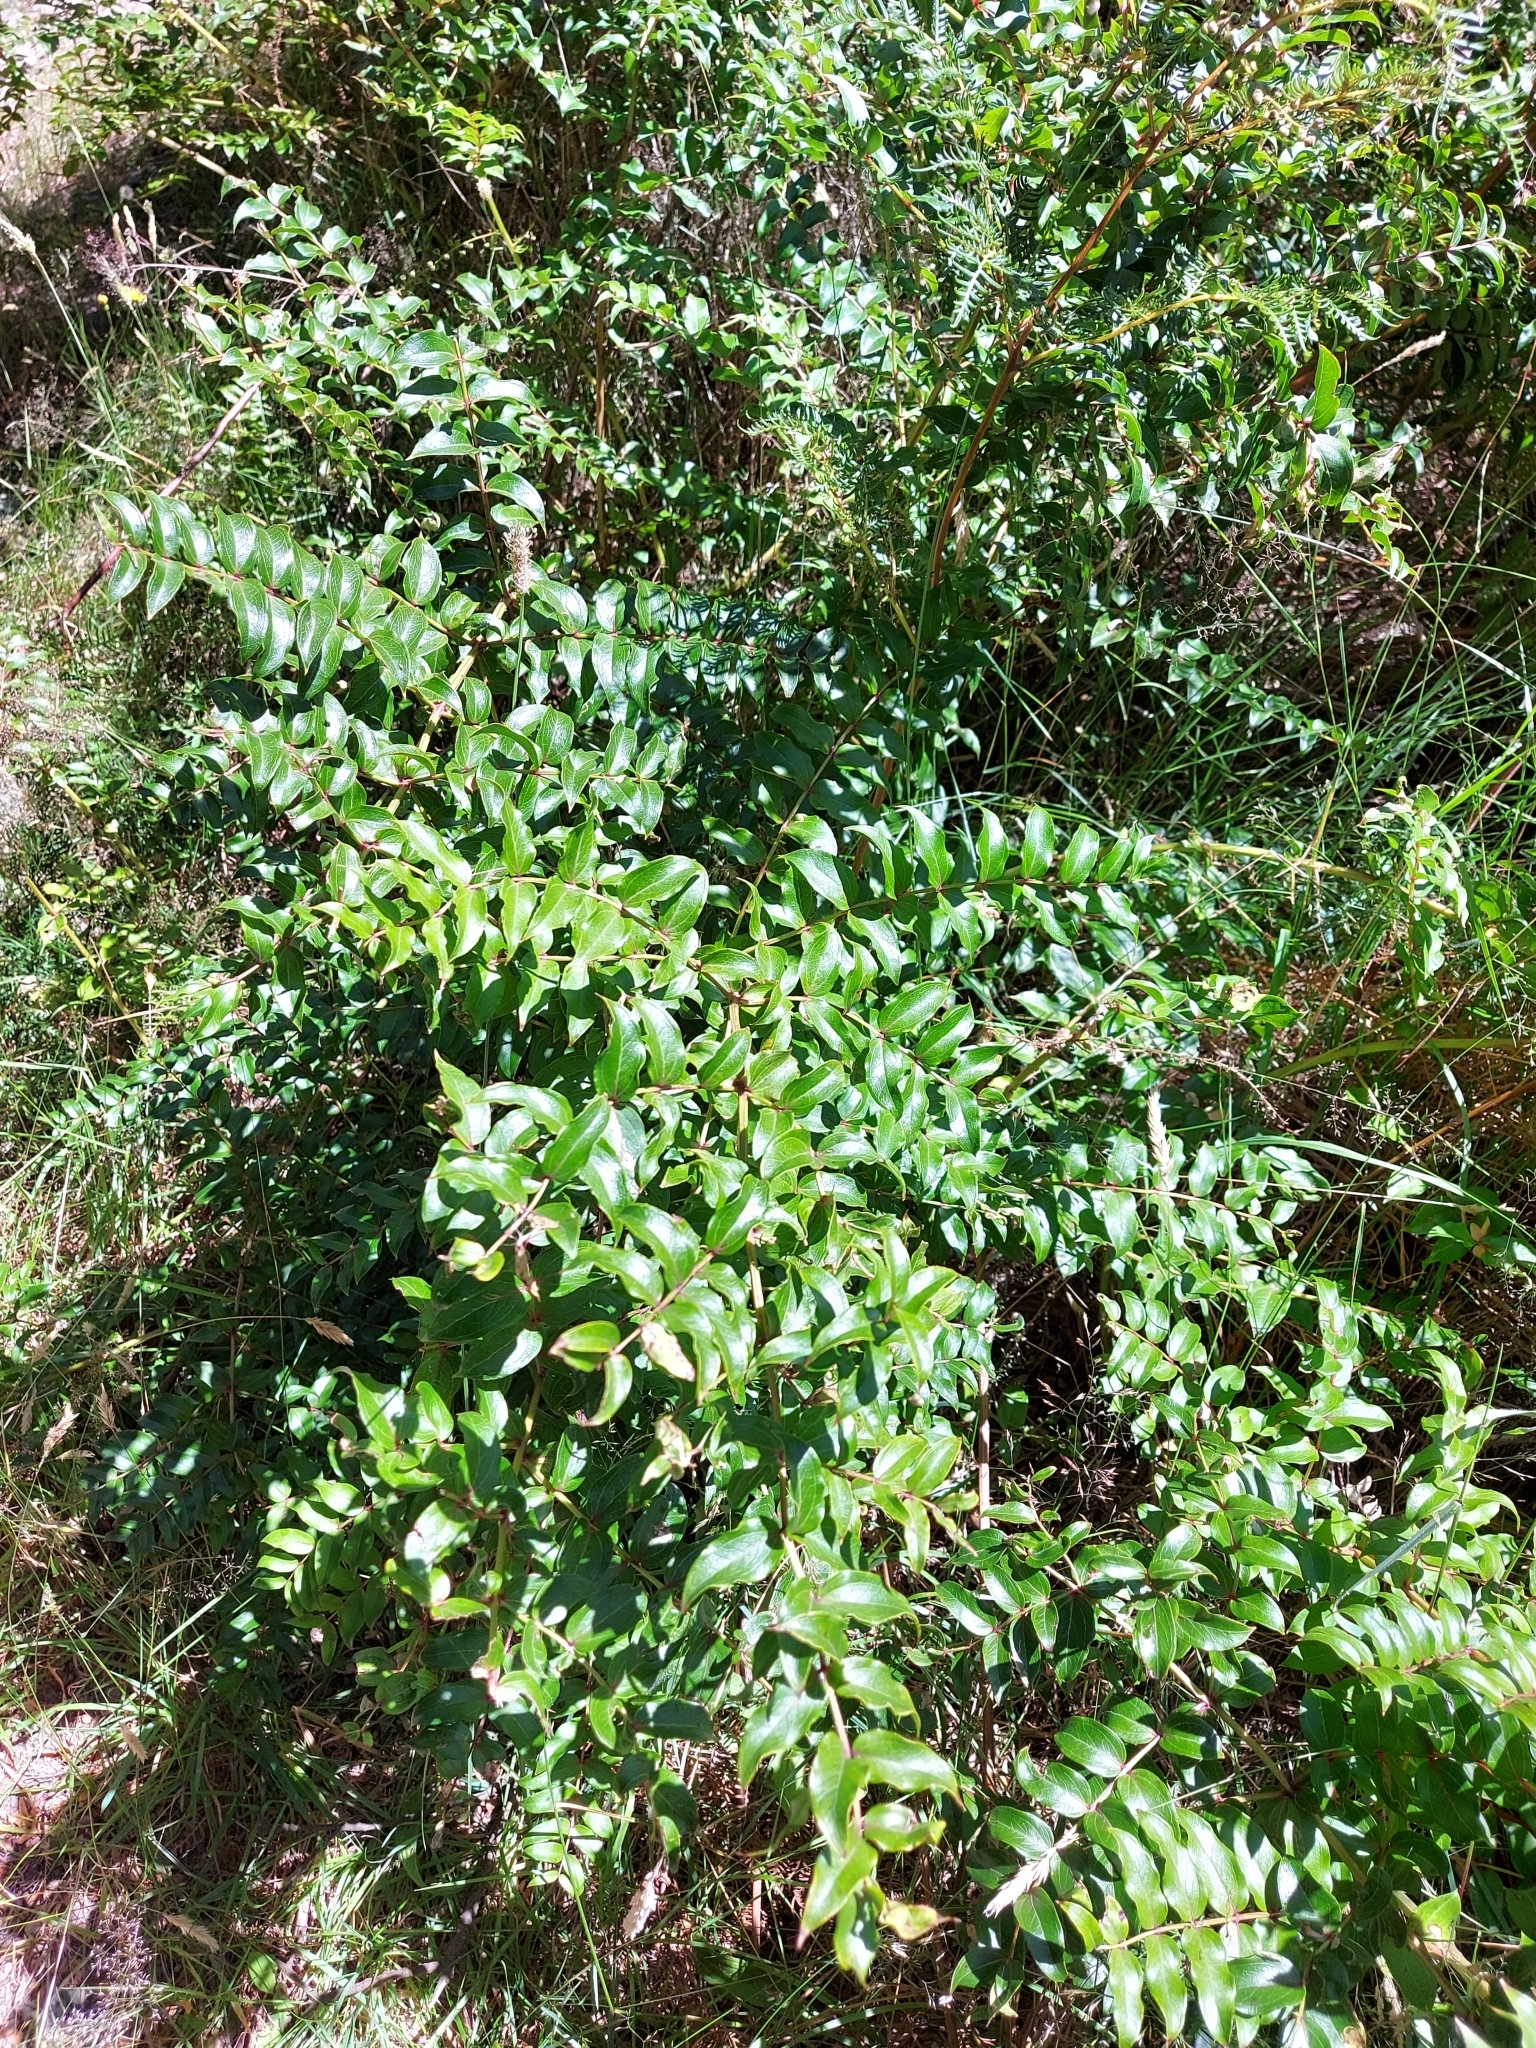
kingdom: Plantae
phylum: Tracheophyta
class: Magnoliopsida
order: Cucurbitales
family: Coriariaceae
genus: Coriaria
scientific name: Coriaria sarmentosa
